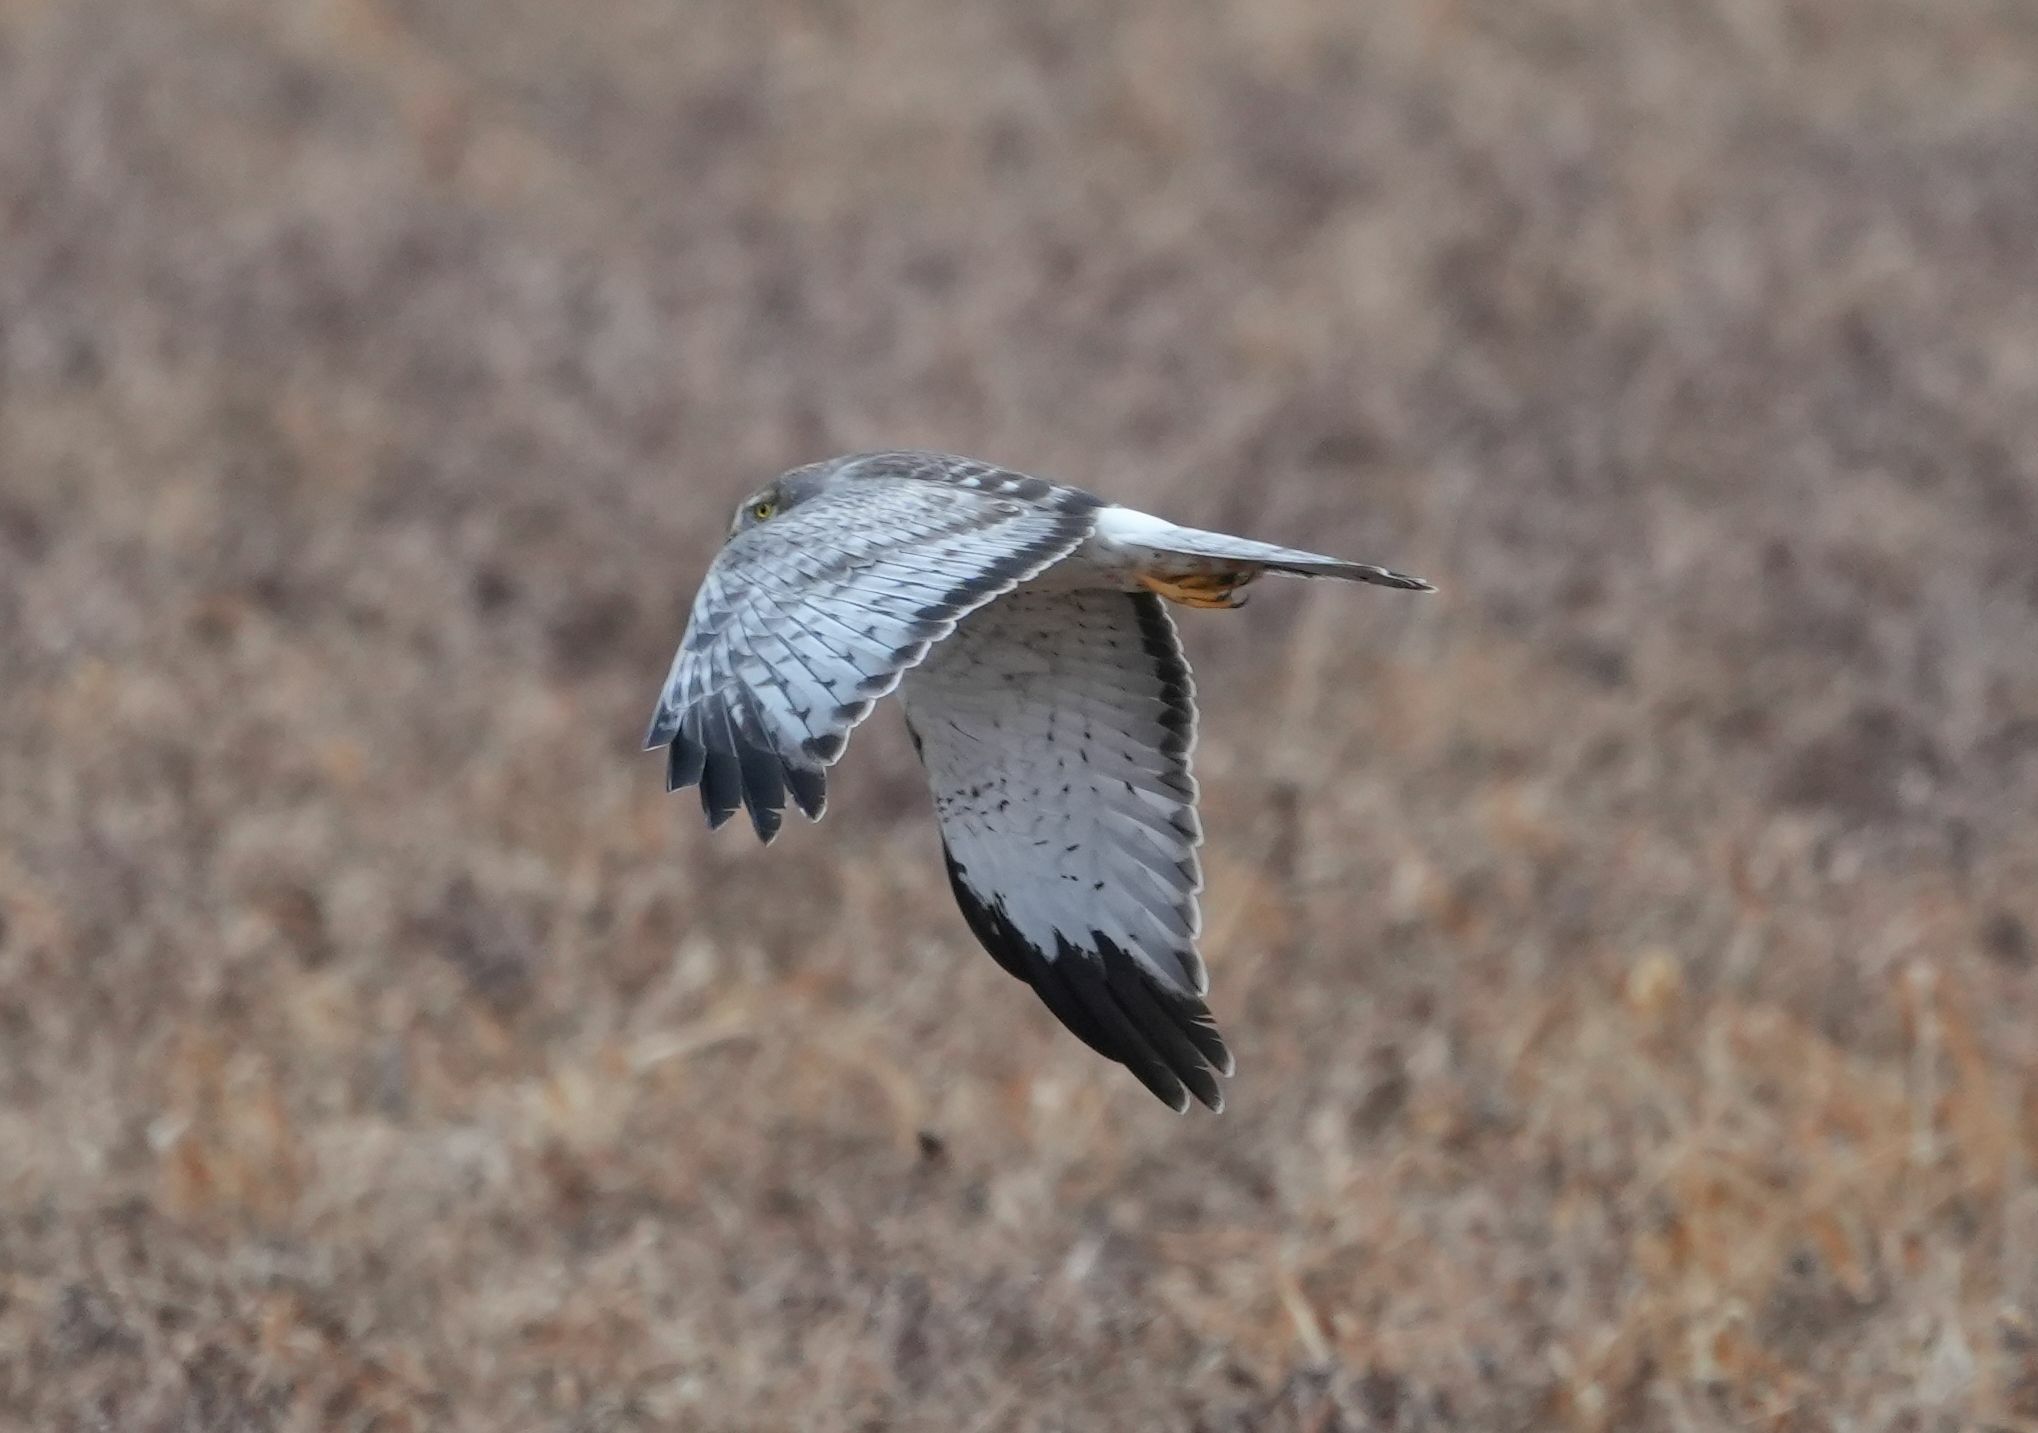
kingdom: Animalia
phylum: Chordata
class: Aves
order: Accipitriformes
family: Accipitridae
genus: Circus
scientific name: Circus cyaneus
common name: Hen harrier
